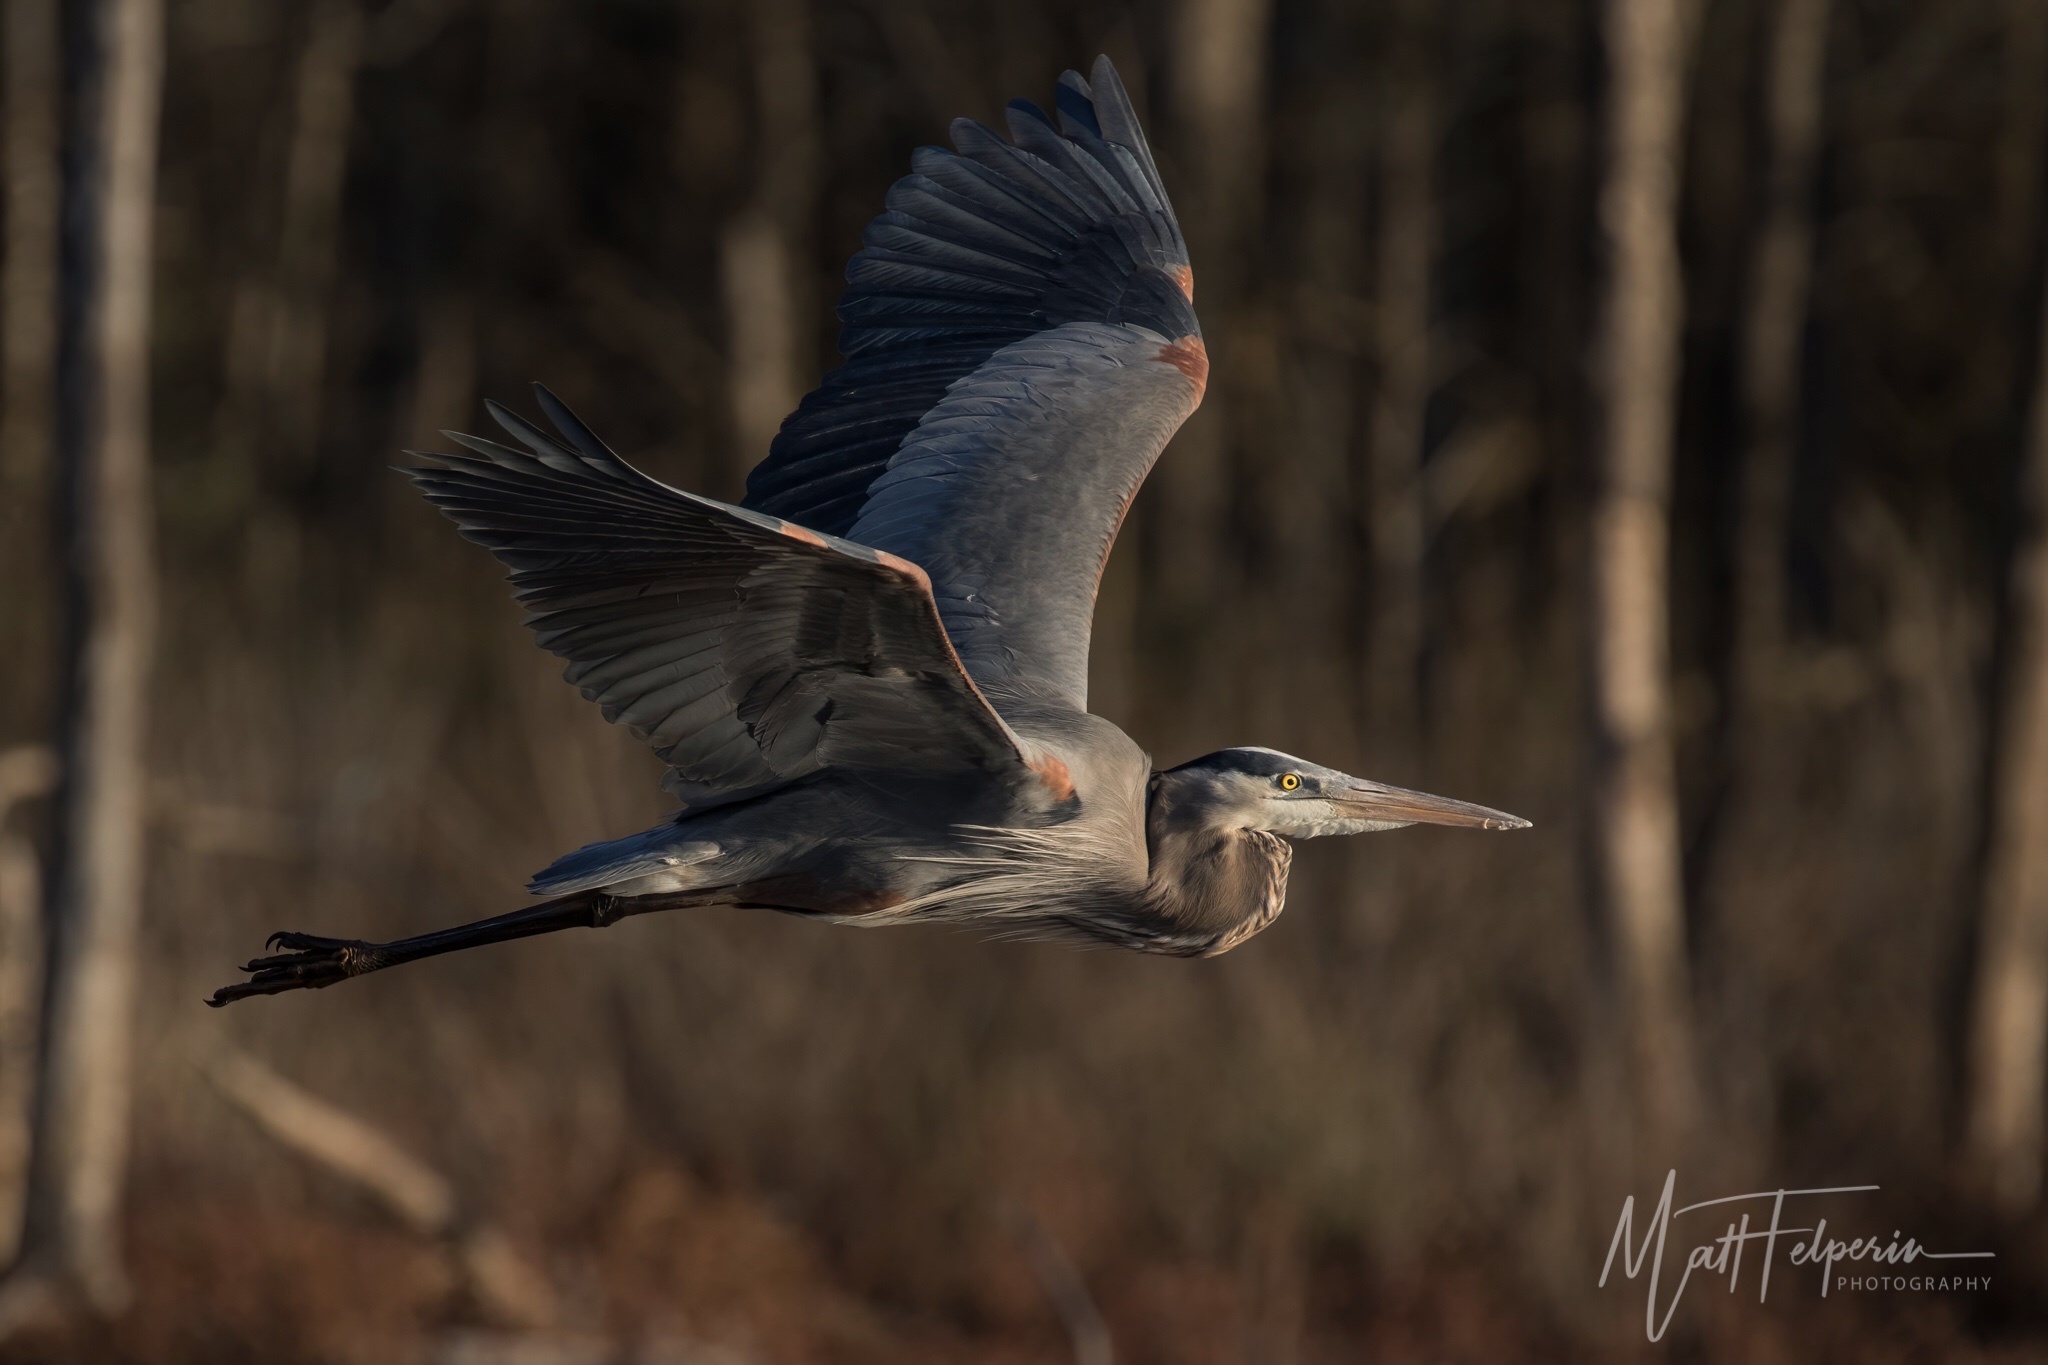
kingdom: Animalia
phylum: Chordata
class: Aves
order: Pelecaniformes
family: Ardeidae
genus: Ardea
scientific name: Ardea herodias
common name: Great blue heron
